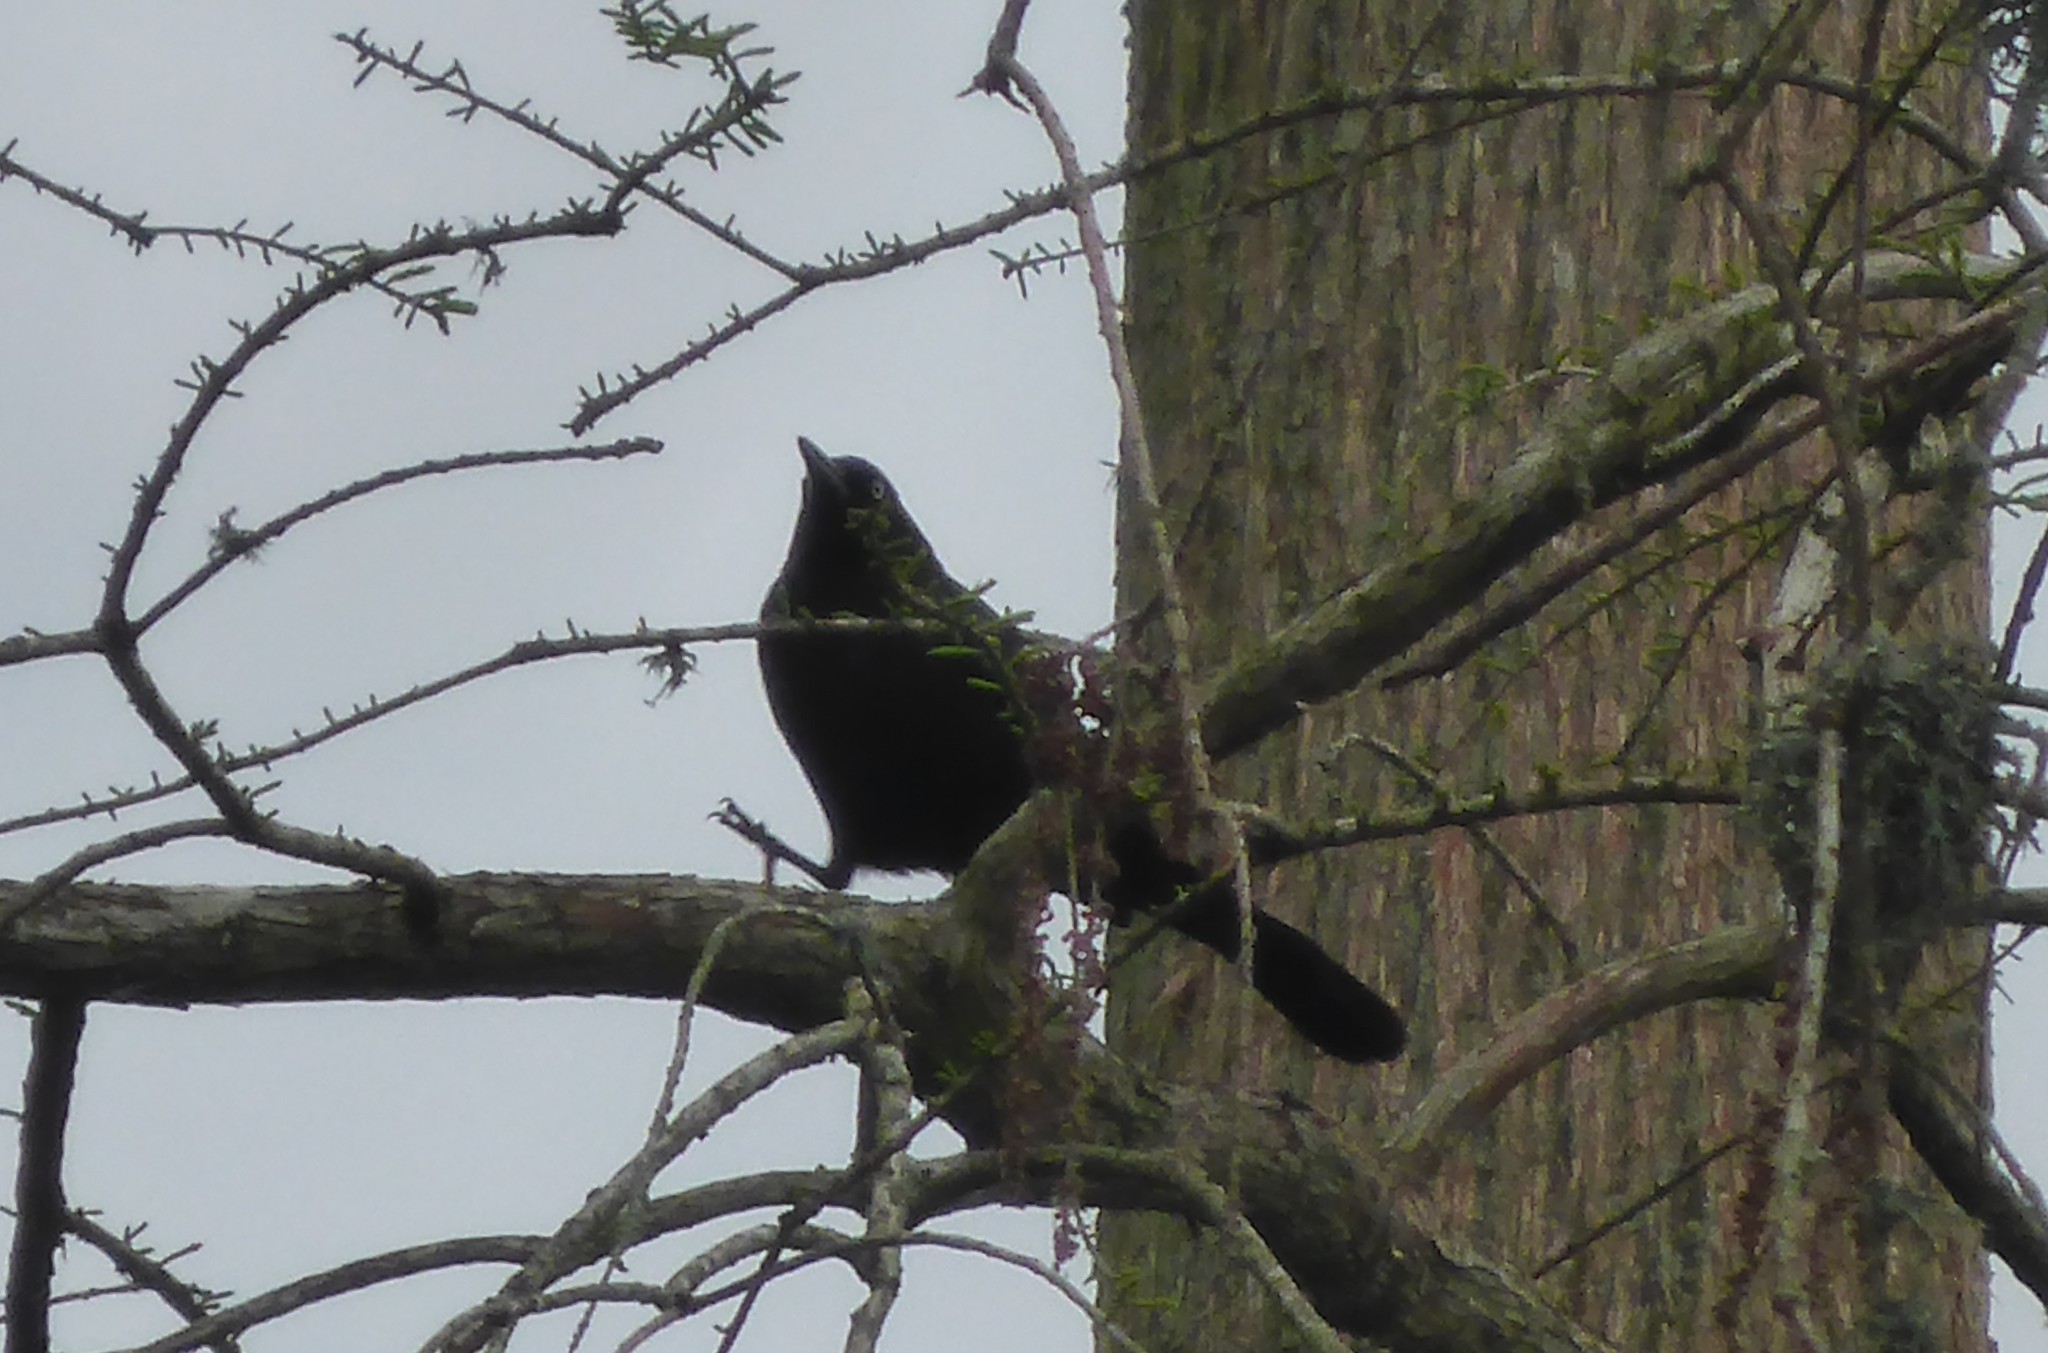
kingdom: Animalia
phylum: Chordata
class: Aves
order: Passeriformes
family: Icteridae
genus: Quiscalus
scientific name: Quiscalus quiscula
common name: Common grackle
